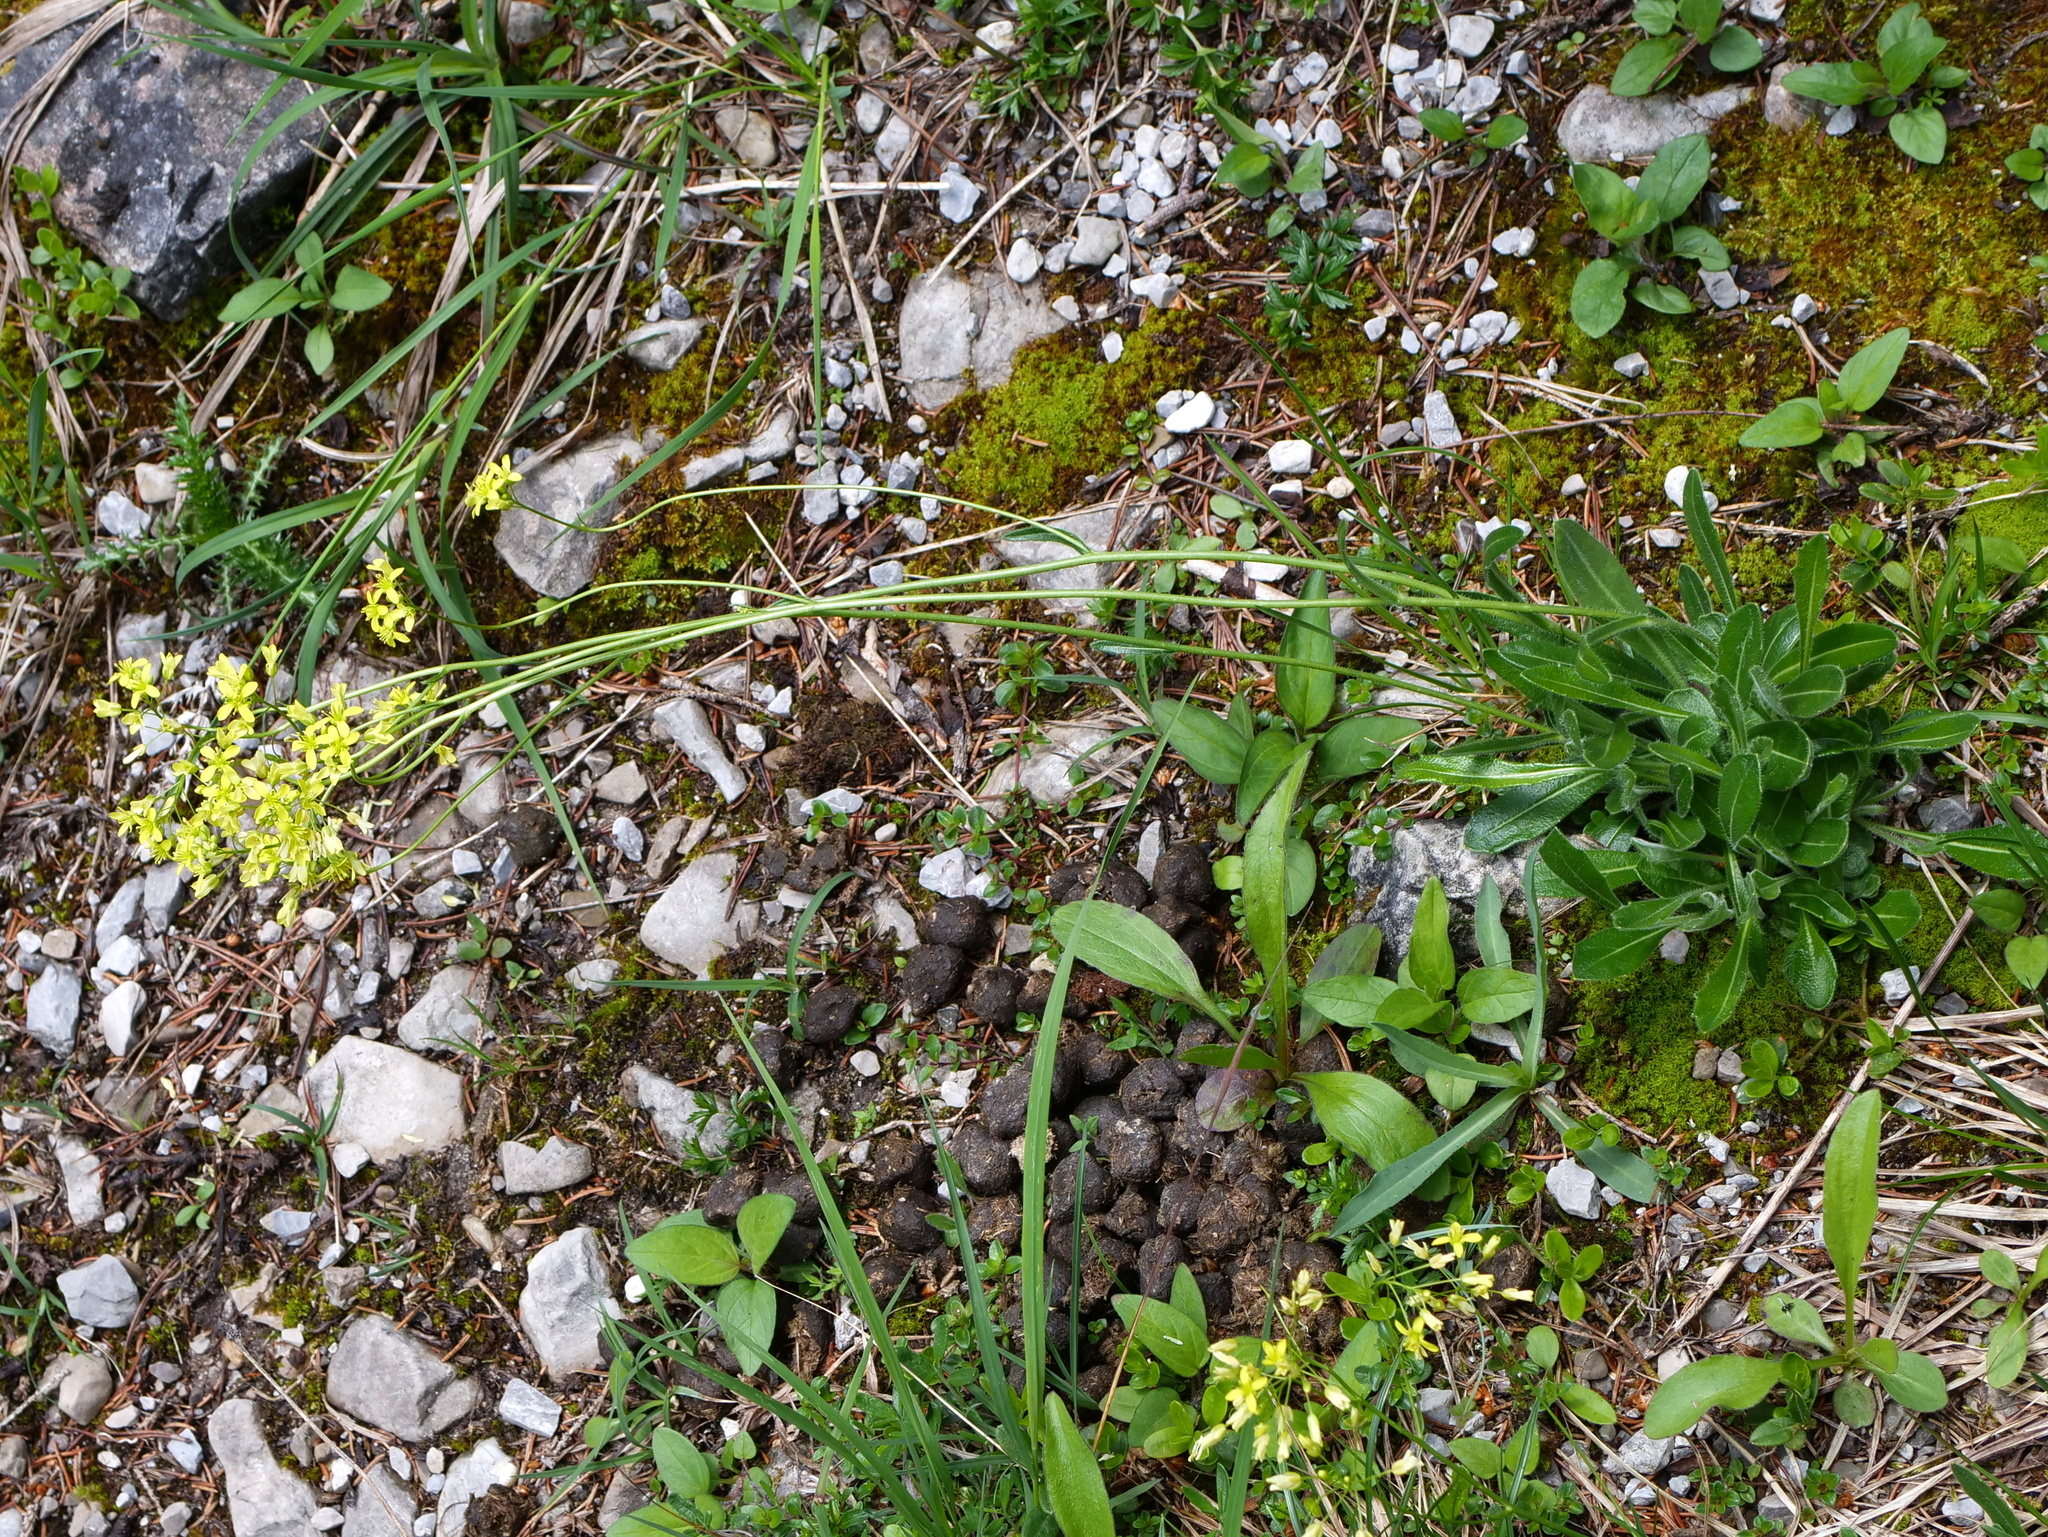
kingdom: Plantae
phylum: Tracheophyta
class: Magnoliopsida
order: Brassicales
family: Brassicaceae
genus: Biscutella
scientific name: Biscutella laevigata
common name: Buckler mustard
